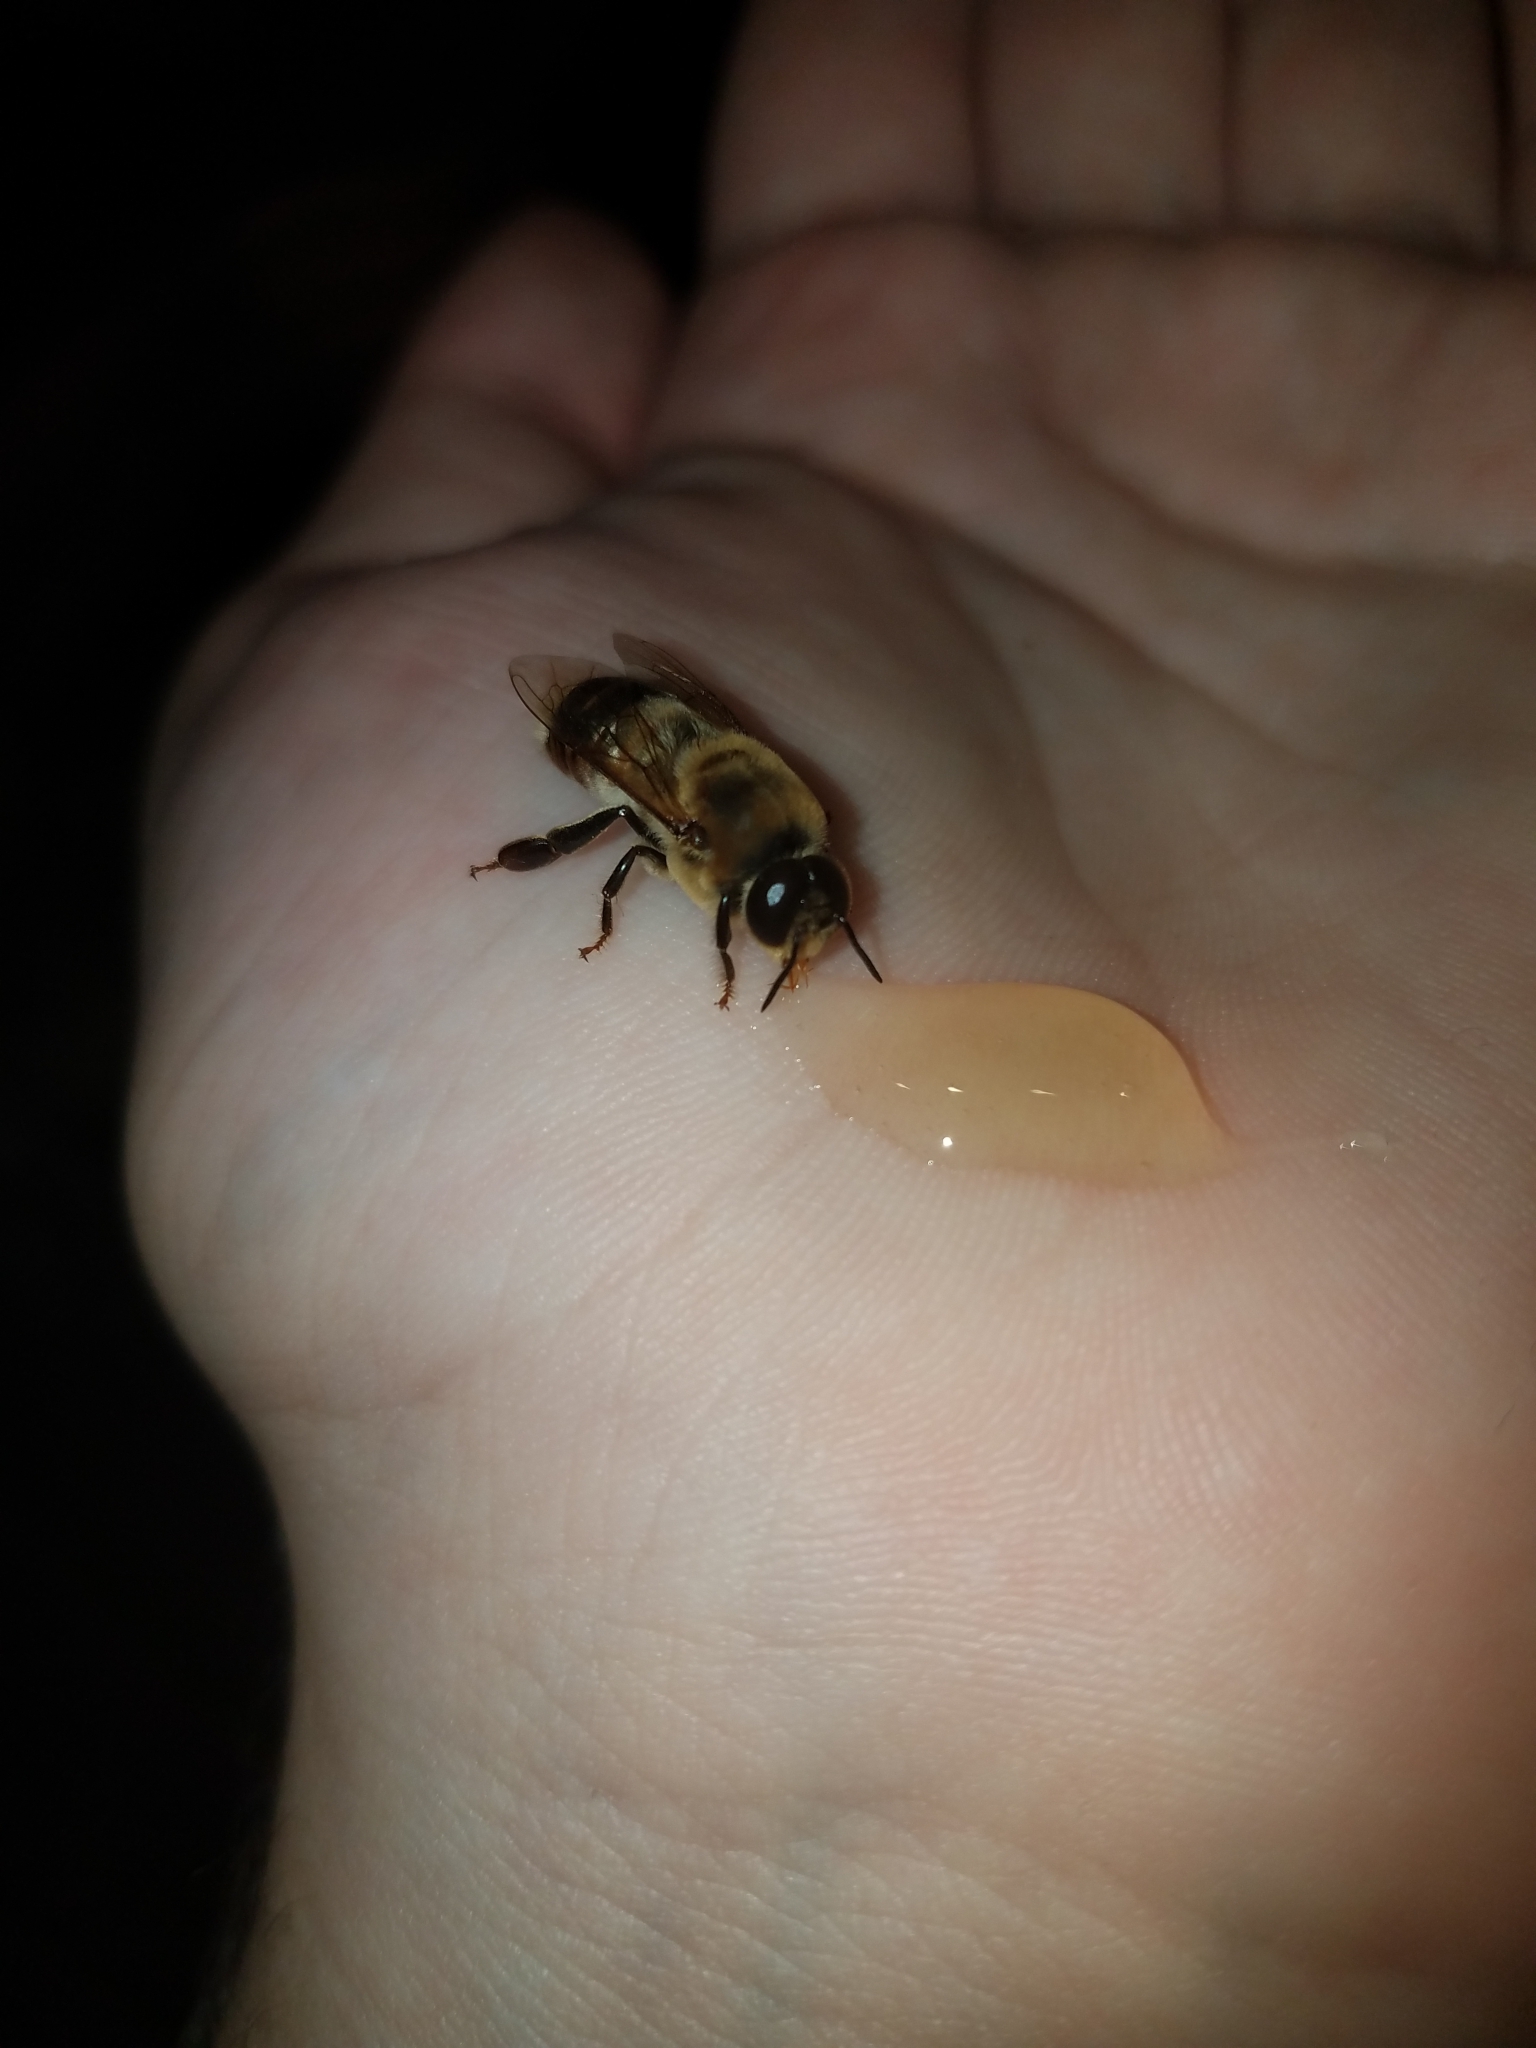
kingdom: Animalia
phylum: Arthropoda
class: Insecta
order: Hymenoptera
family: Apidae
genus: Apis
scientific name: Apis mellifera
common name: Honey bee
